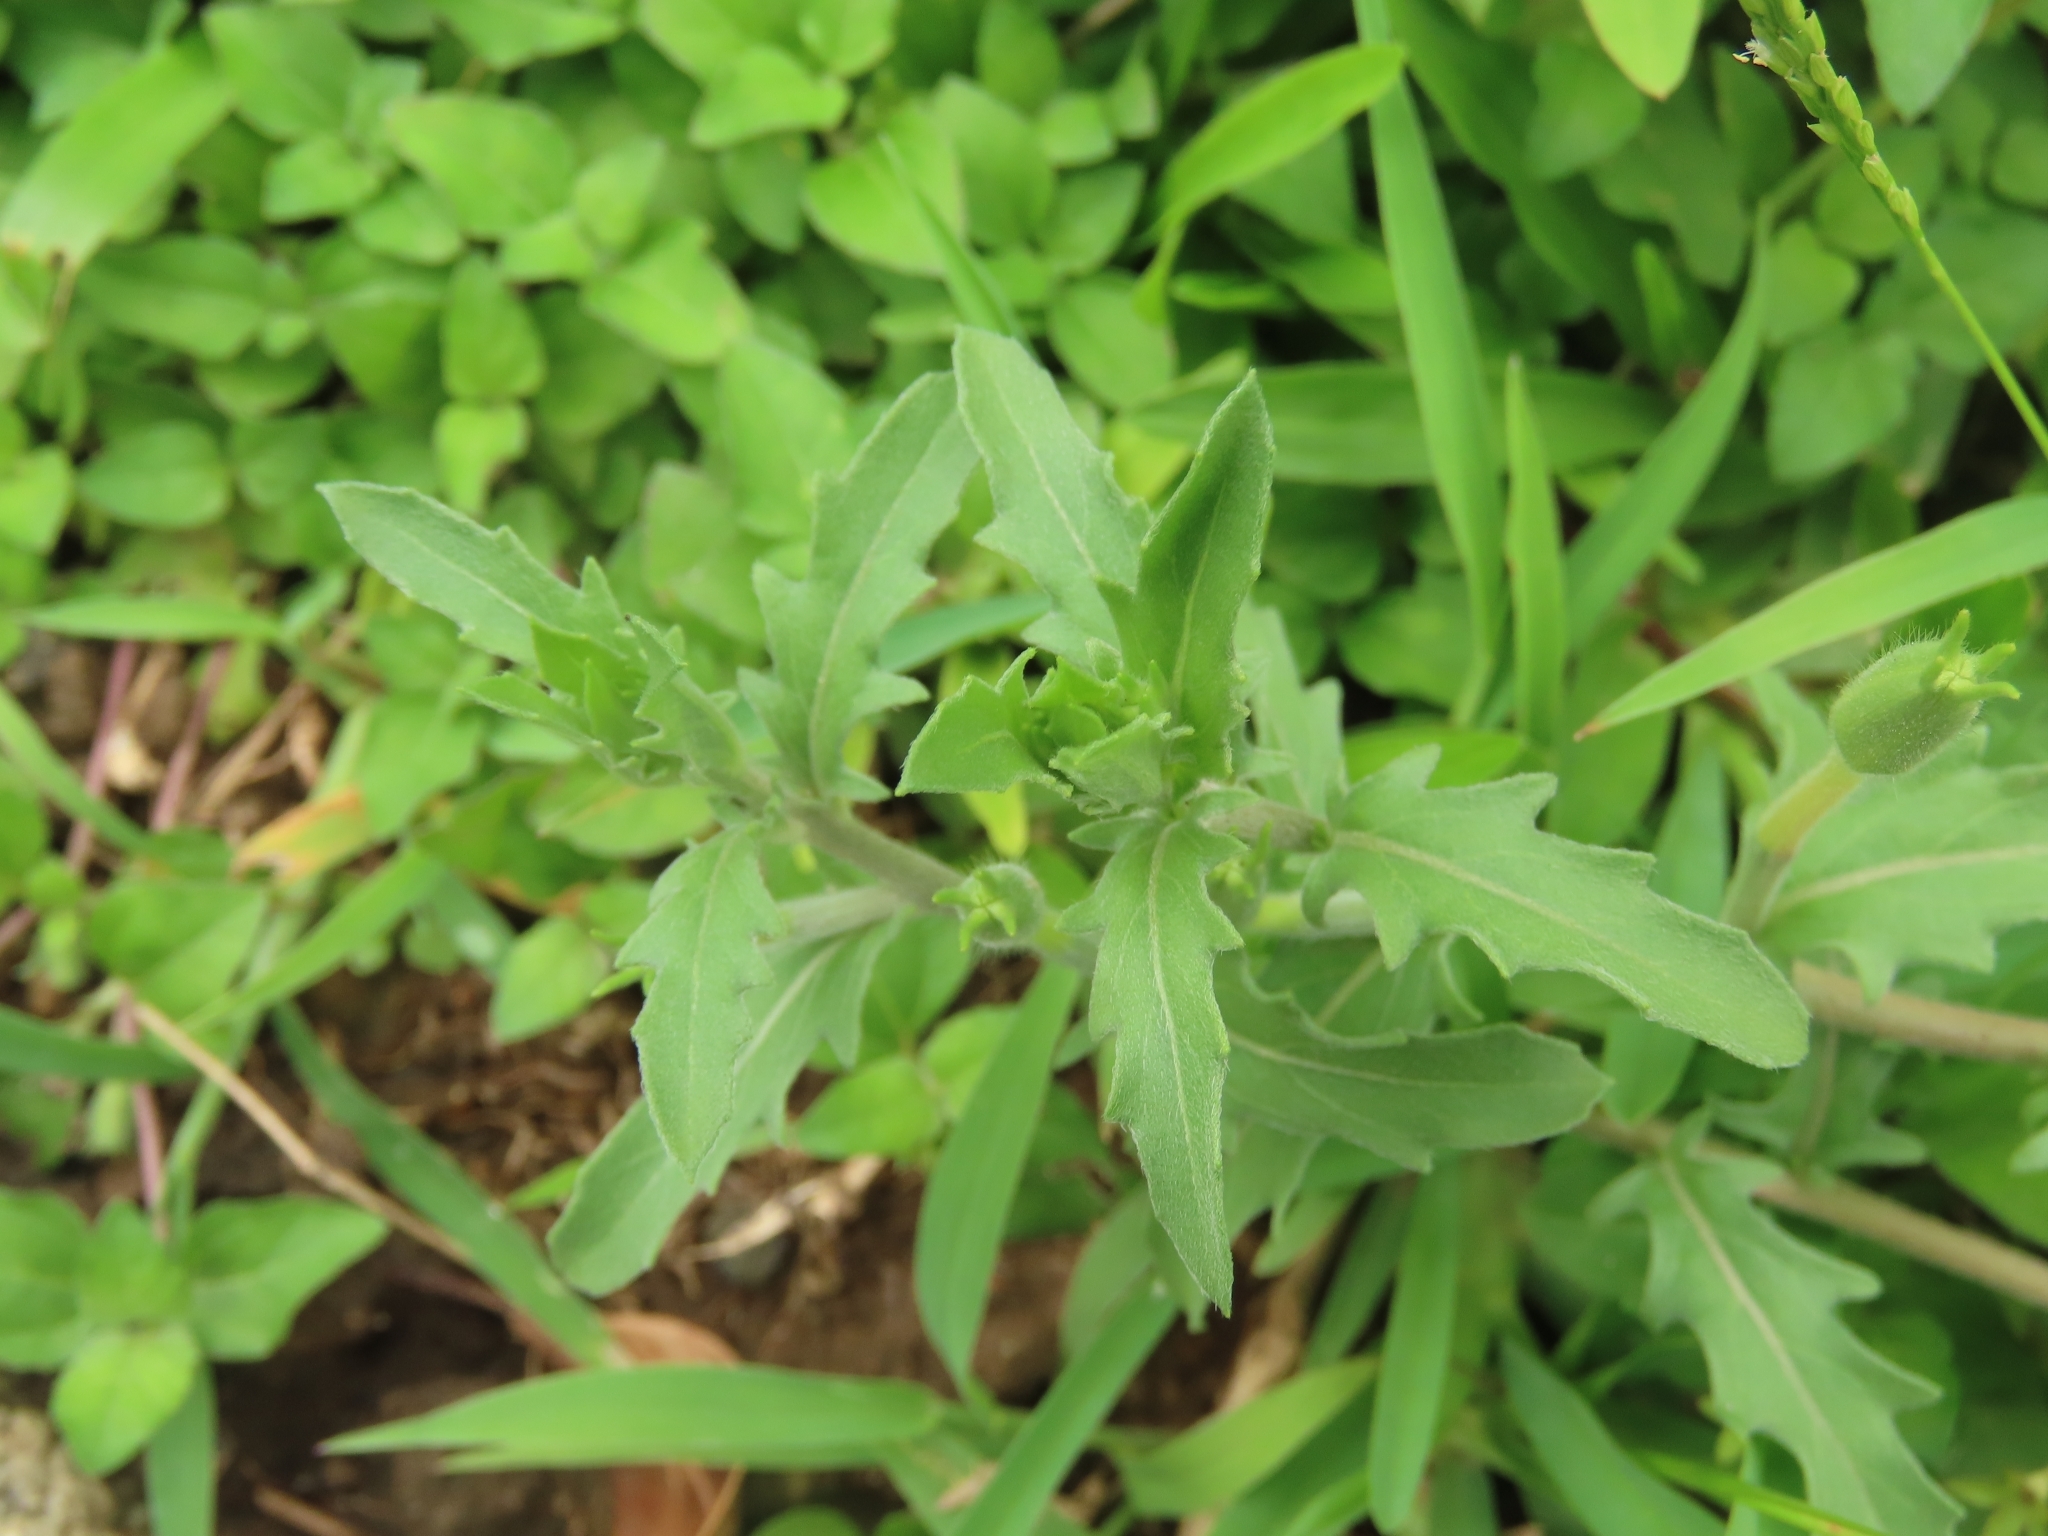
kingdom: Plantae
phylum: Tracheophyta
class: Magnoliopsida
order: Myrtales
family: Onagraceae
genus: Oenothera
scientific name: Oenothera laciniata
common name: Cut-leaved evening-primrose
